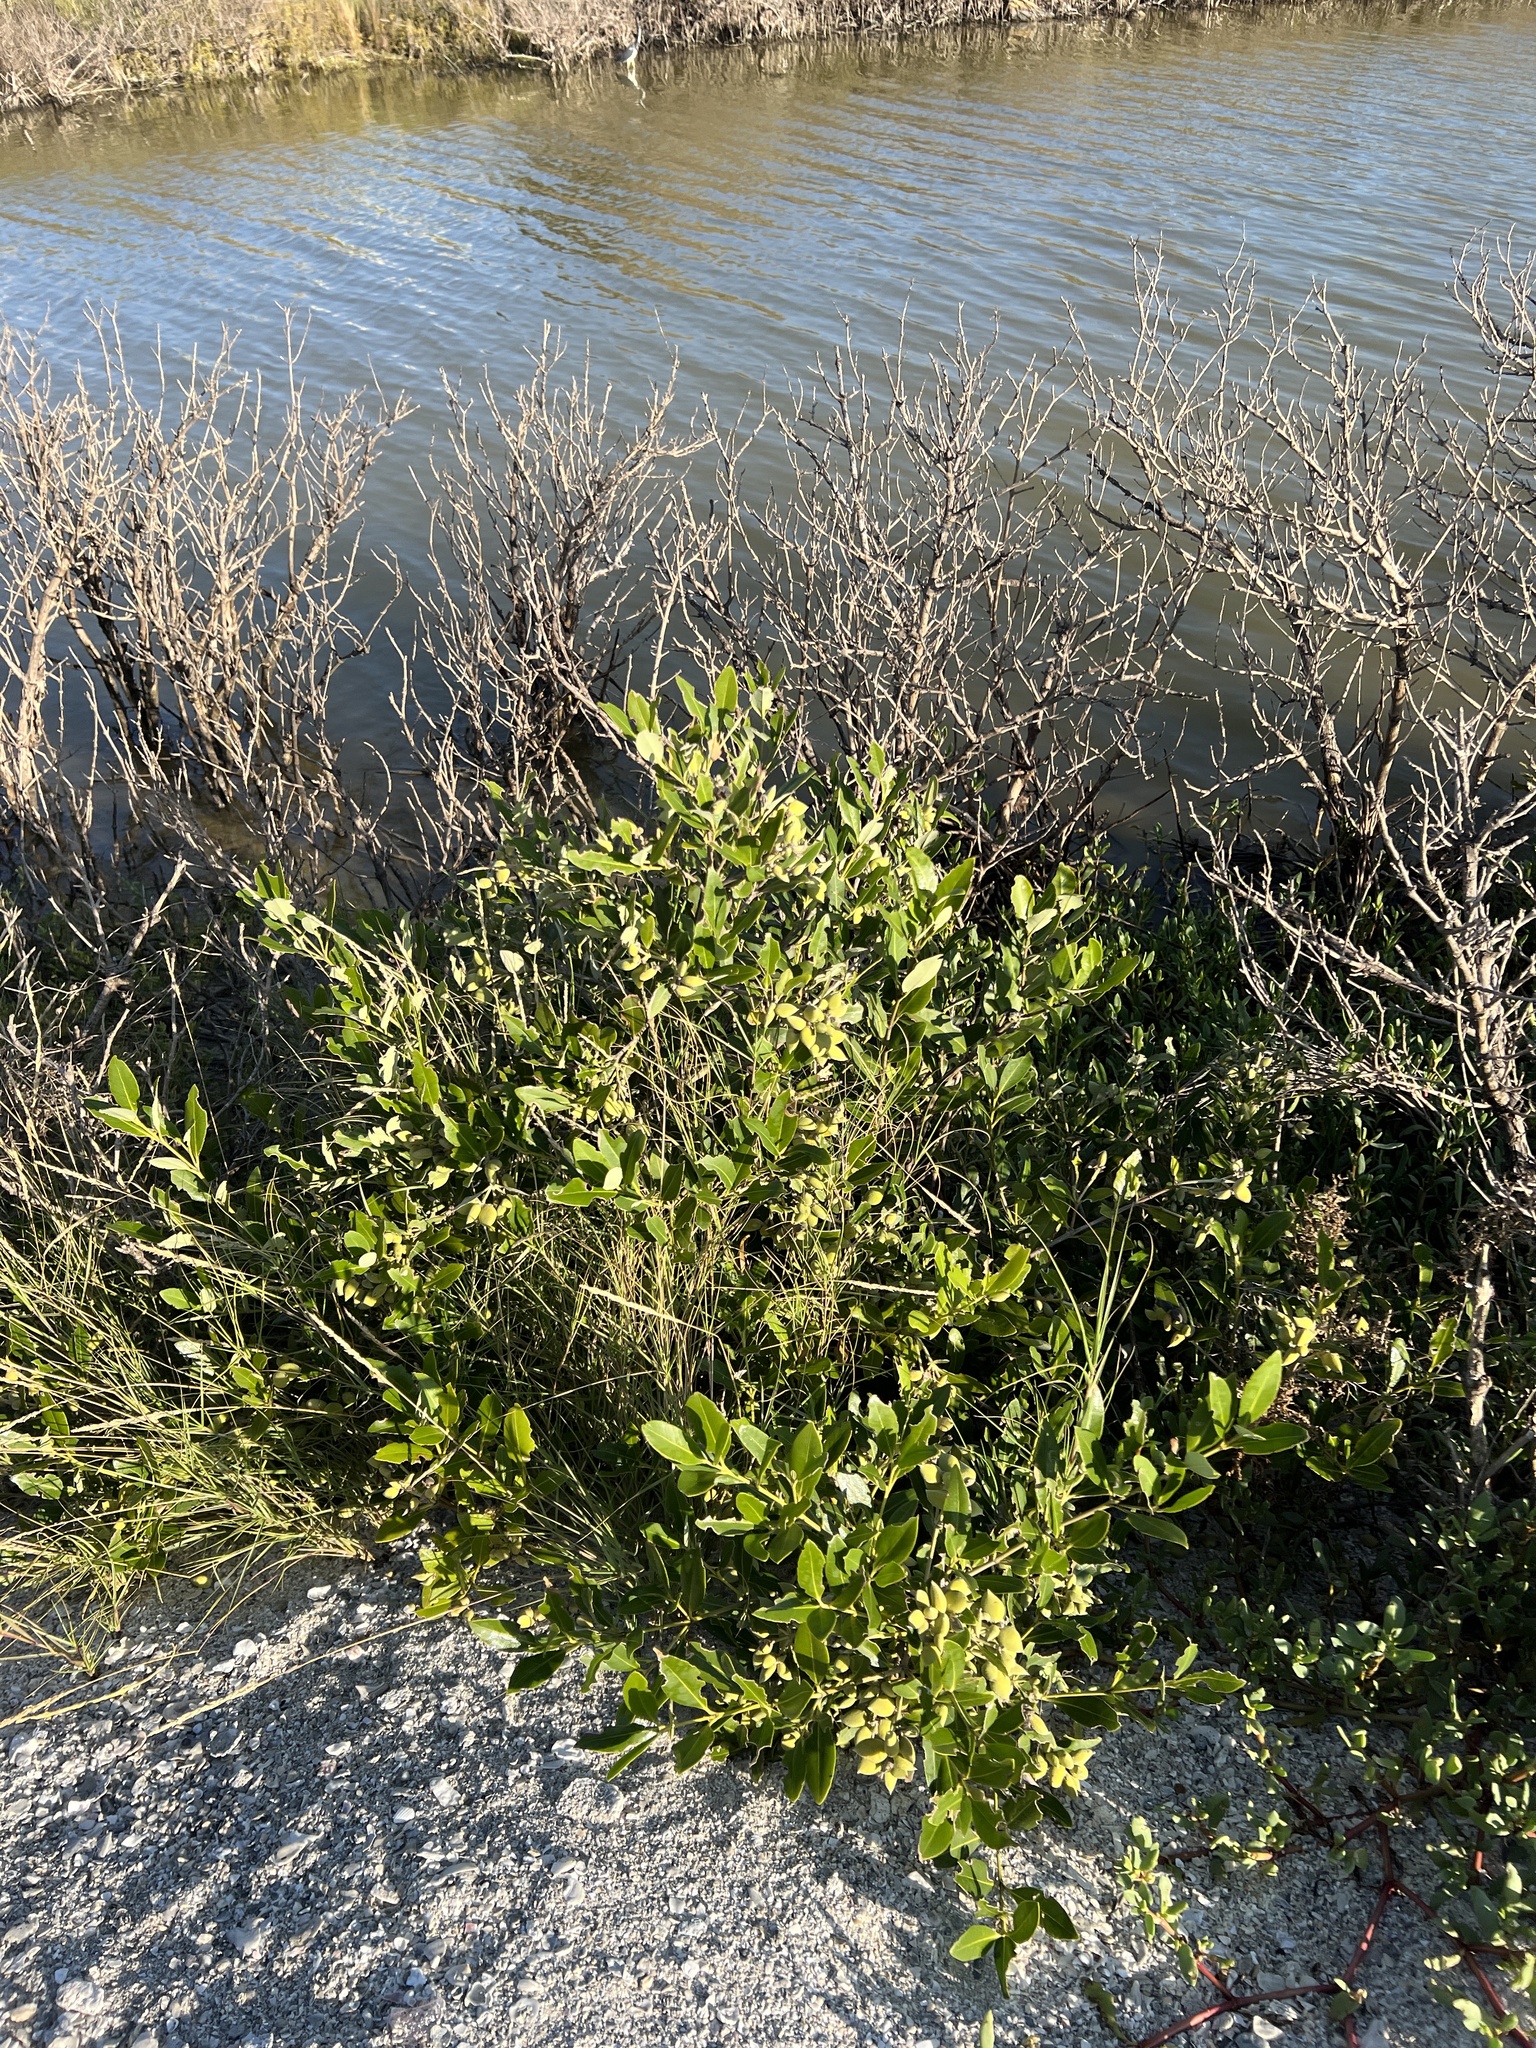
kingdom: Plantae
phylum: Tracheophyta
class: Magnoliopsida
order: Lamiales
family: Acanthaceae
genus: Avicennia
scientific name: Avicennia germinans
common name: Black mangrove
